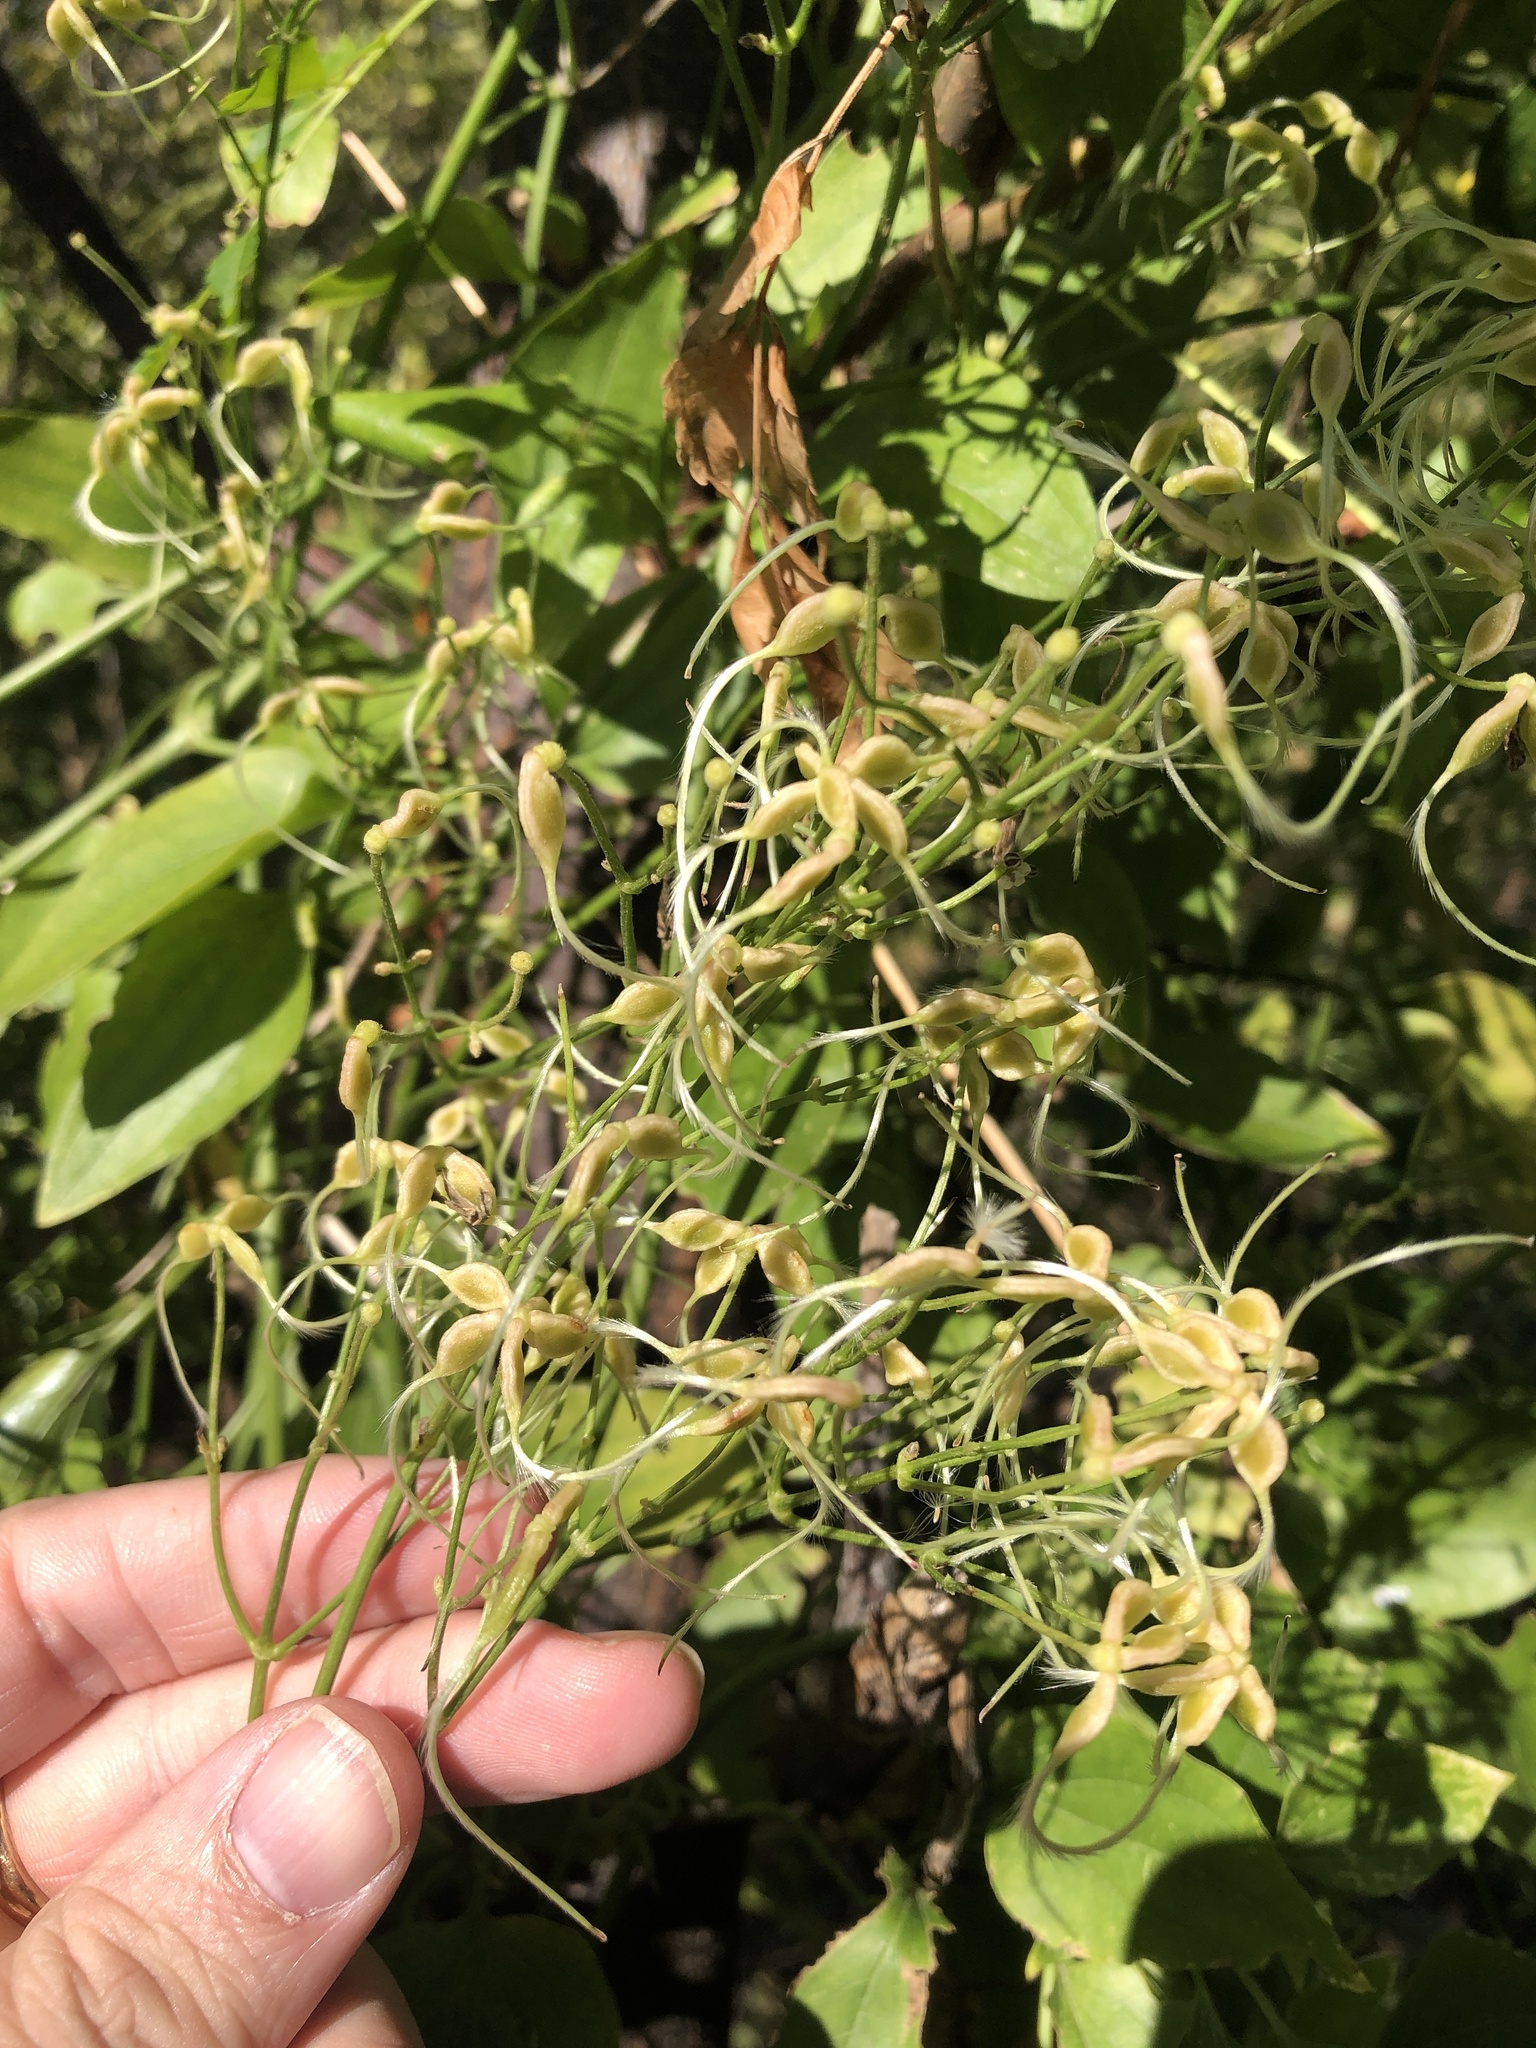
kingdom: Plantae
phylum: Tracheophyta
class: Magnoliopsida
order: Ranunculales
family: Ranunculaceae
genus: Clematis
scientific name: Clematis terniflora
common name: Sweet autumn clematis
